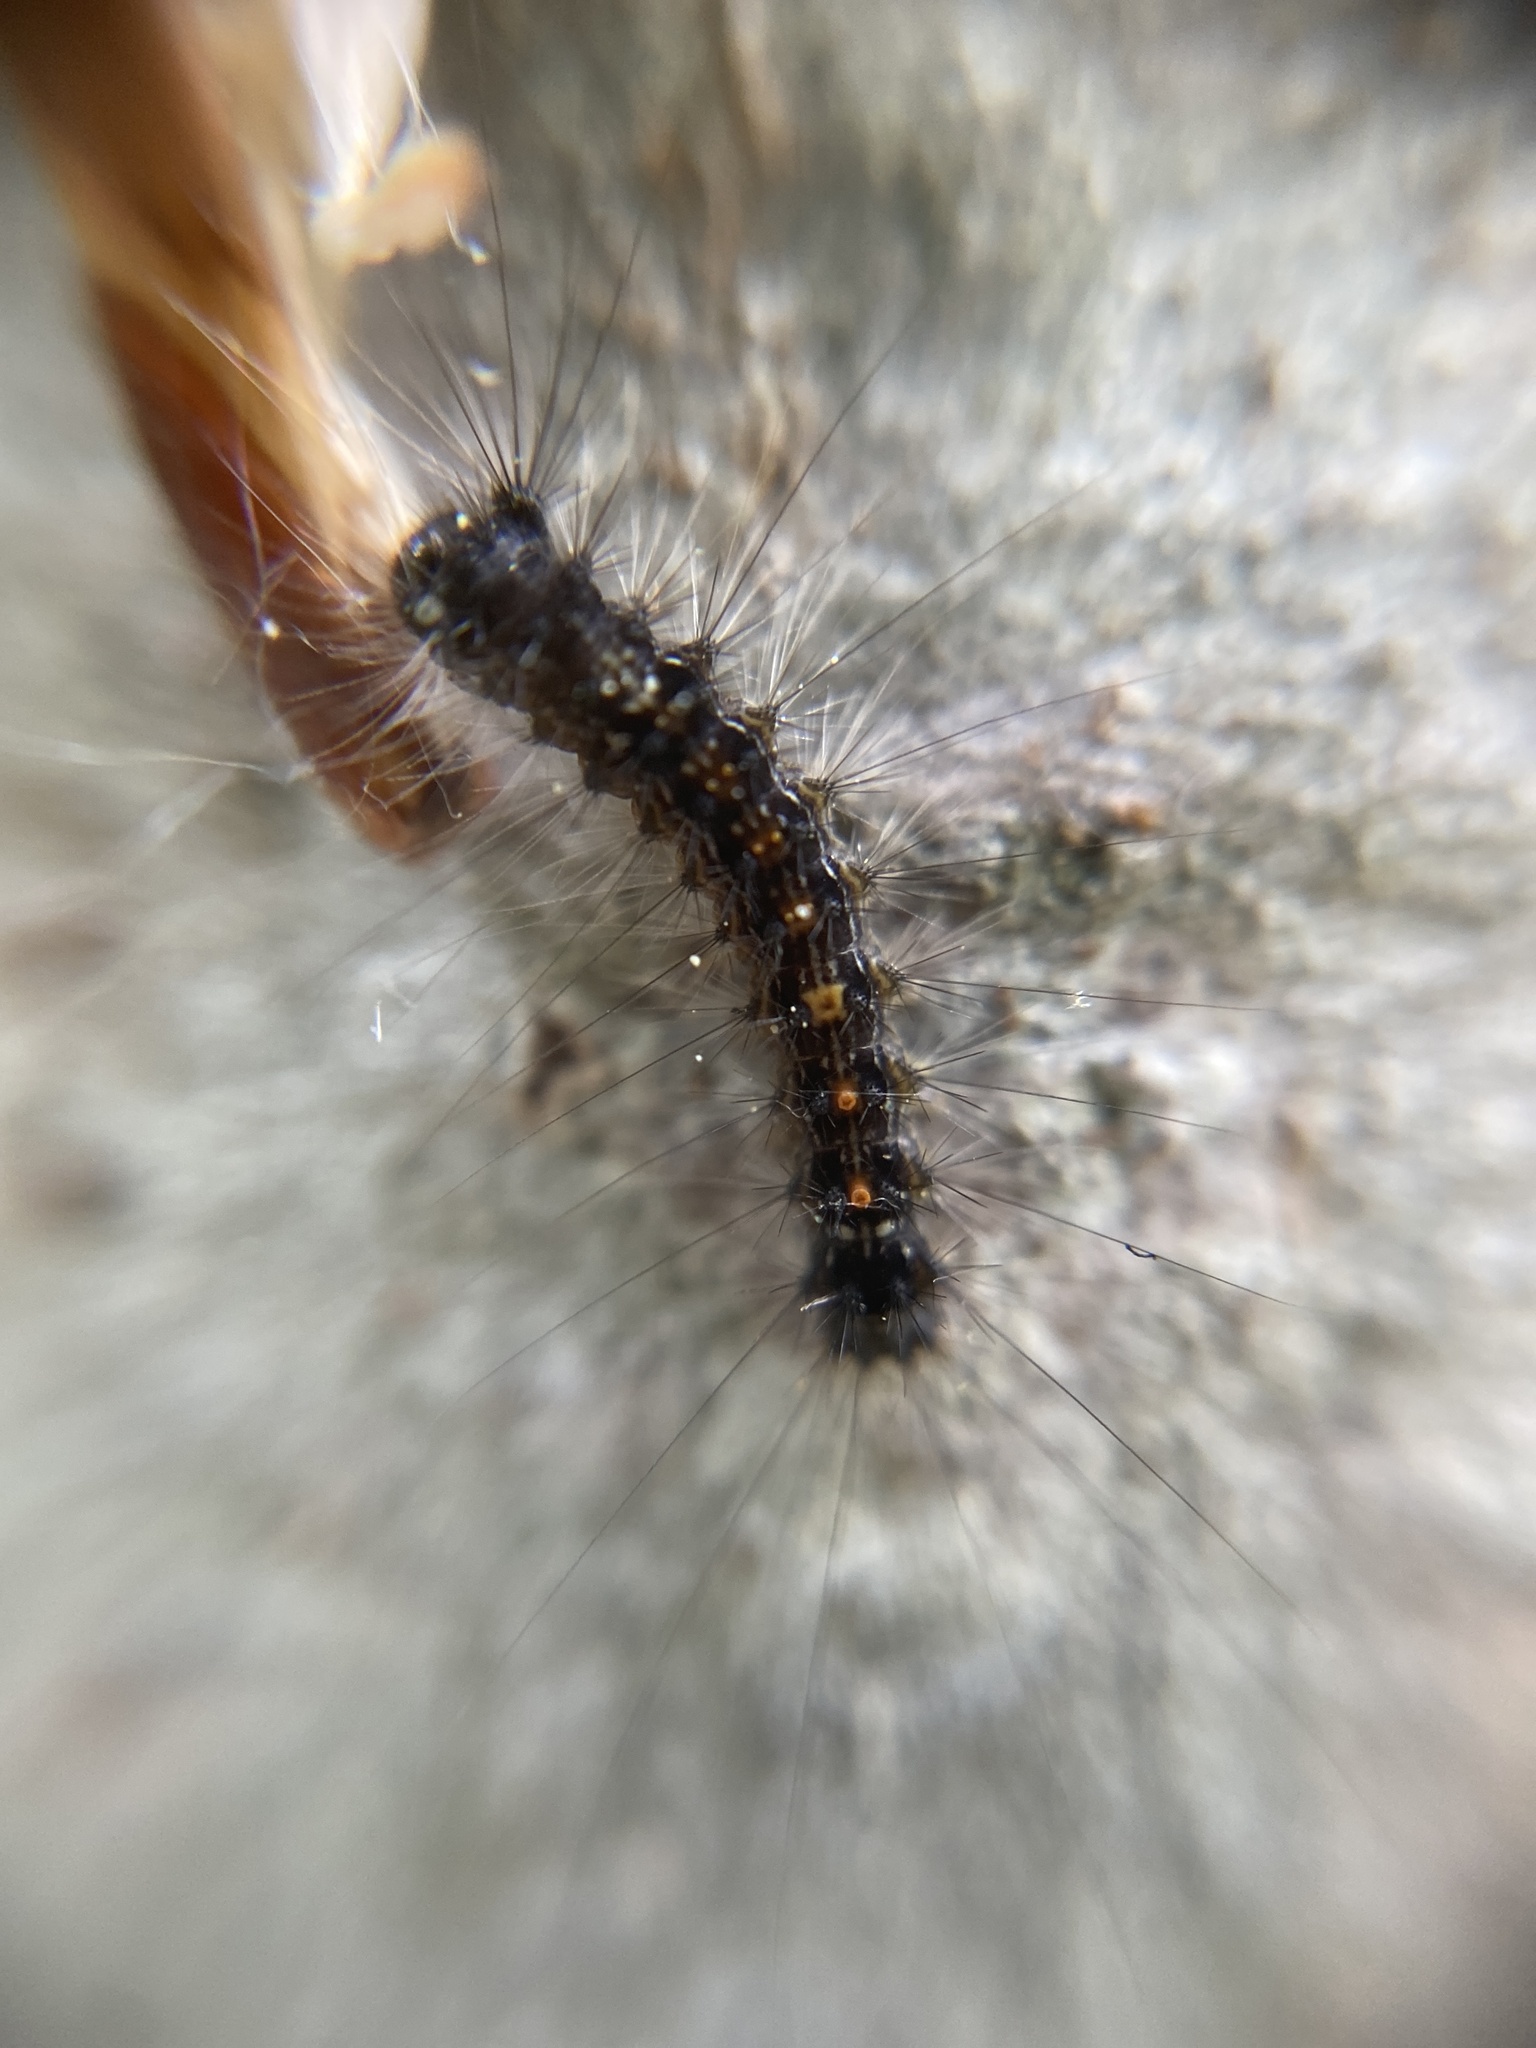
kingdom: Animalia
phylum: Arthropoda
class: Insecta
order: Lepidoptera
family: Erebidae
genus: Lymantria
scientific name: Lymantria dispar
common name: Gypsy moth
